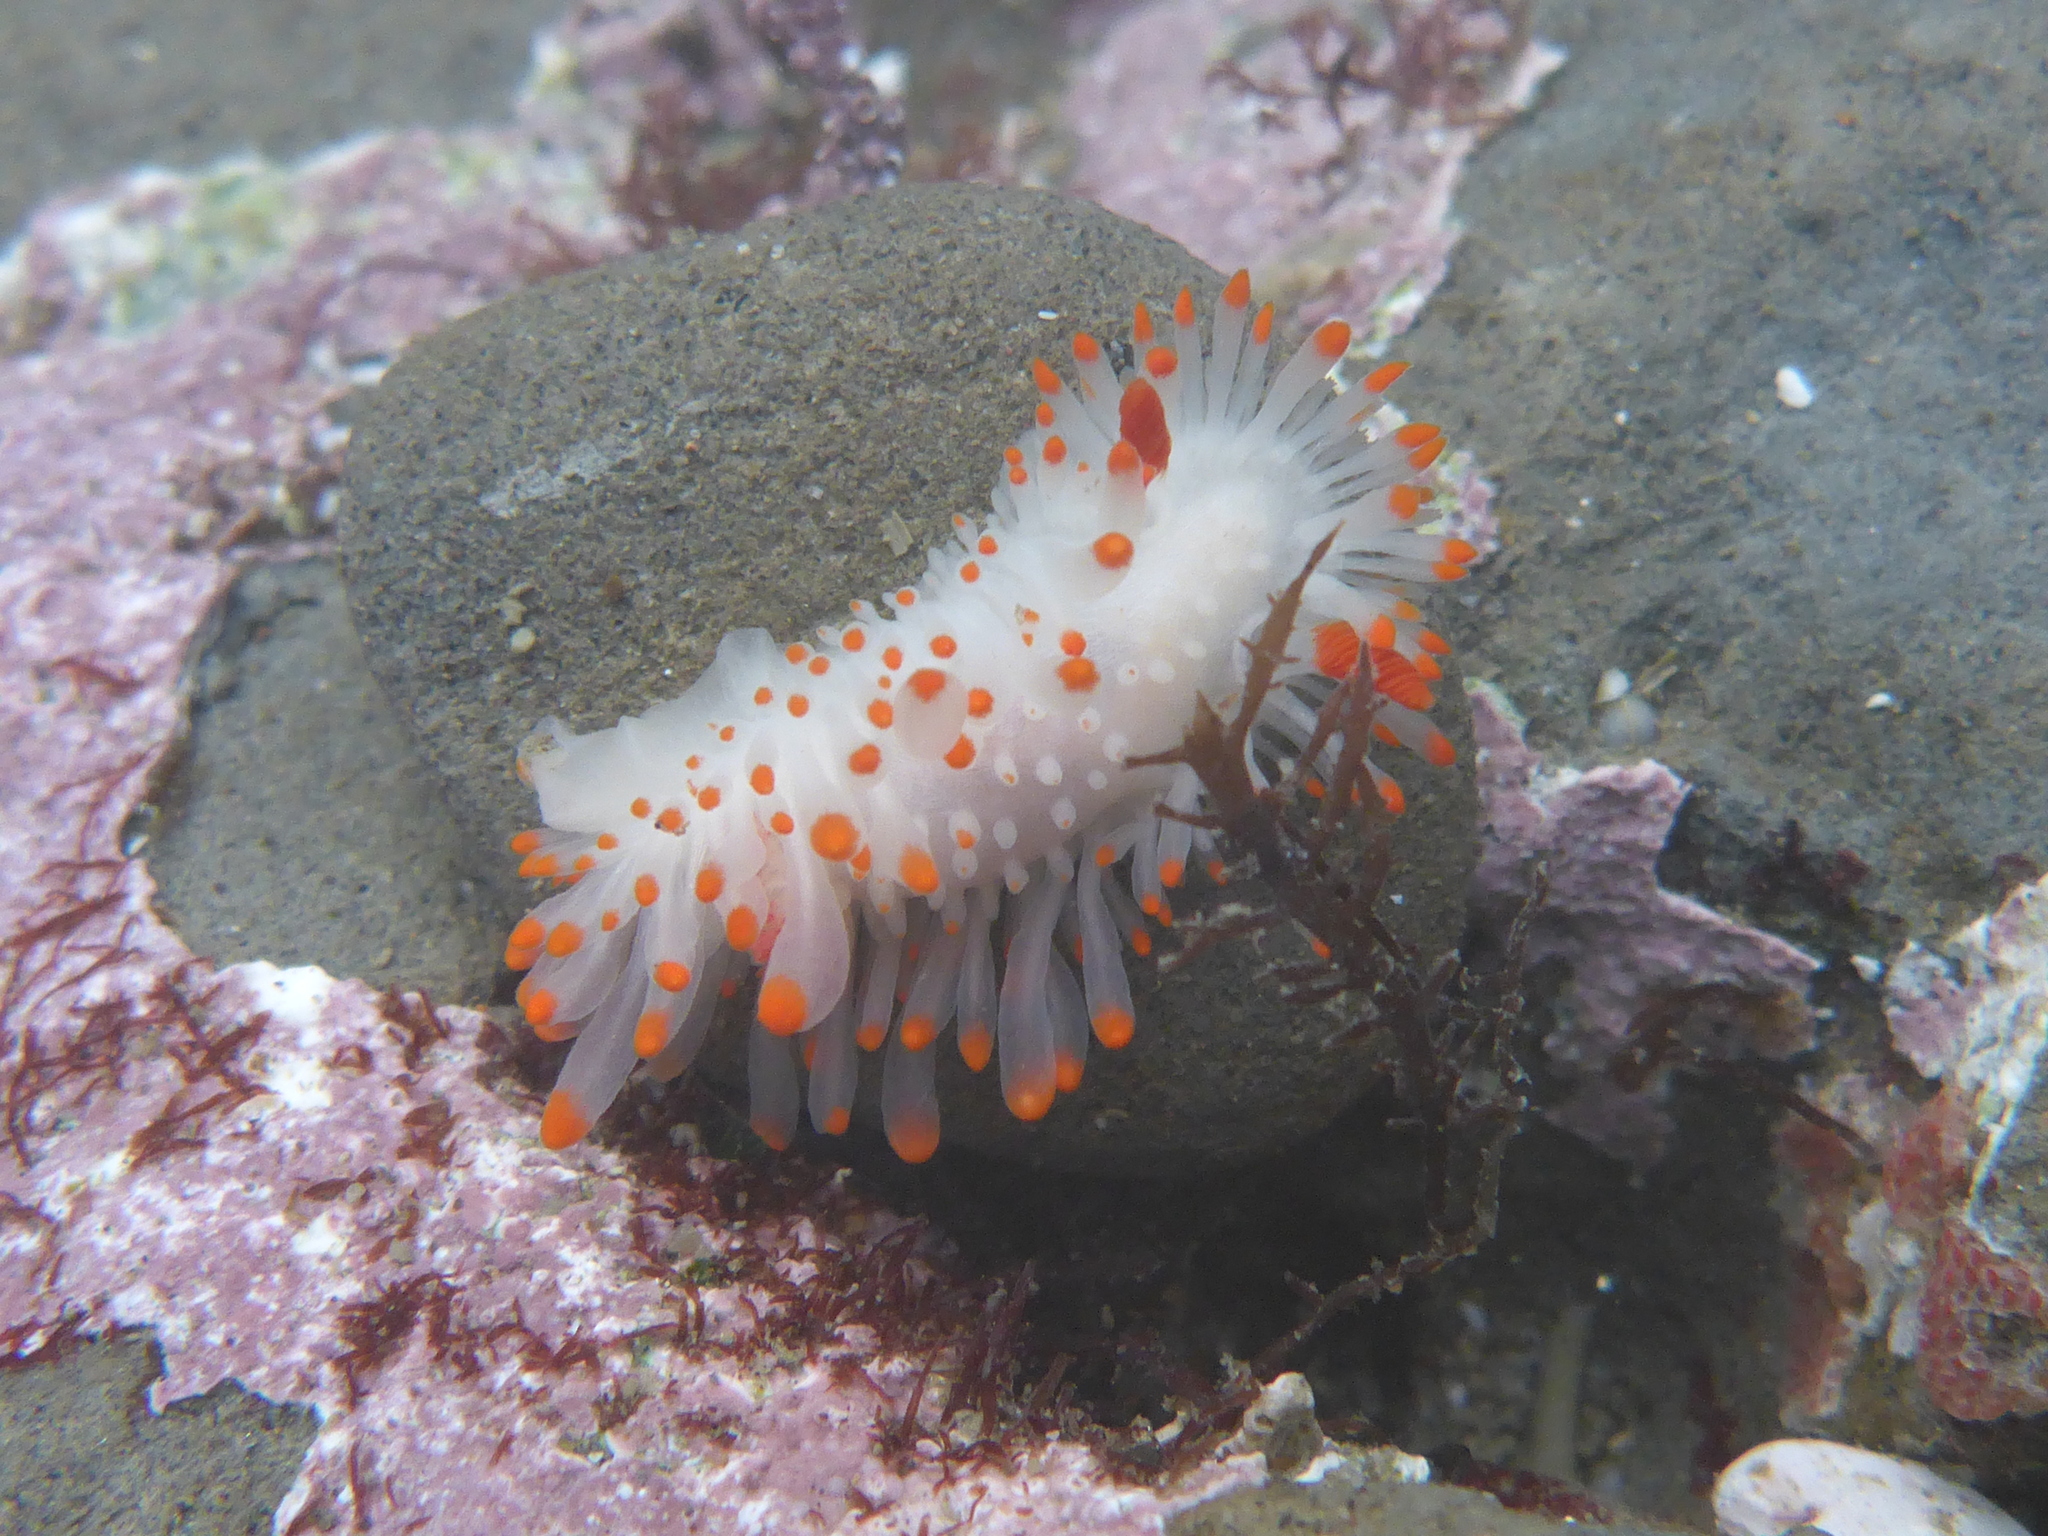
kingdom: Animalia
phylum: Mollusca
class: Gastropoda
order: Nudibranchia
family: Polyceridae
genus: Limacia
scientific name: Limacia cockerelli
